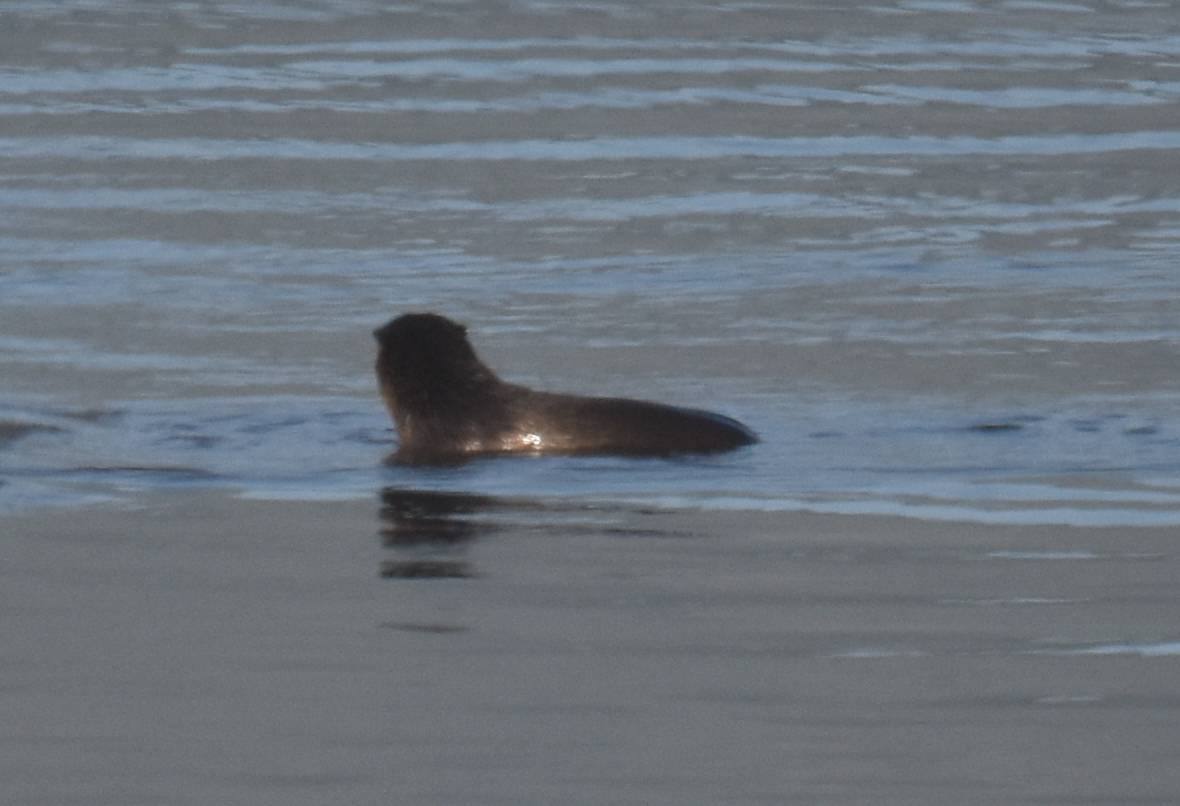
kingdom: Animalia
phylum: Chordata
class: Mammalia
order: Carnivora
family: Mustelidae
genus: Lontra
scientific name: Lontra canadensis
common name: North american river otter
